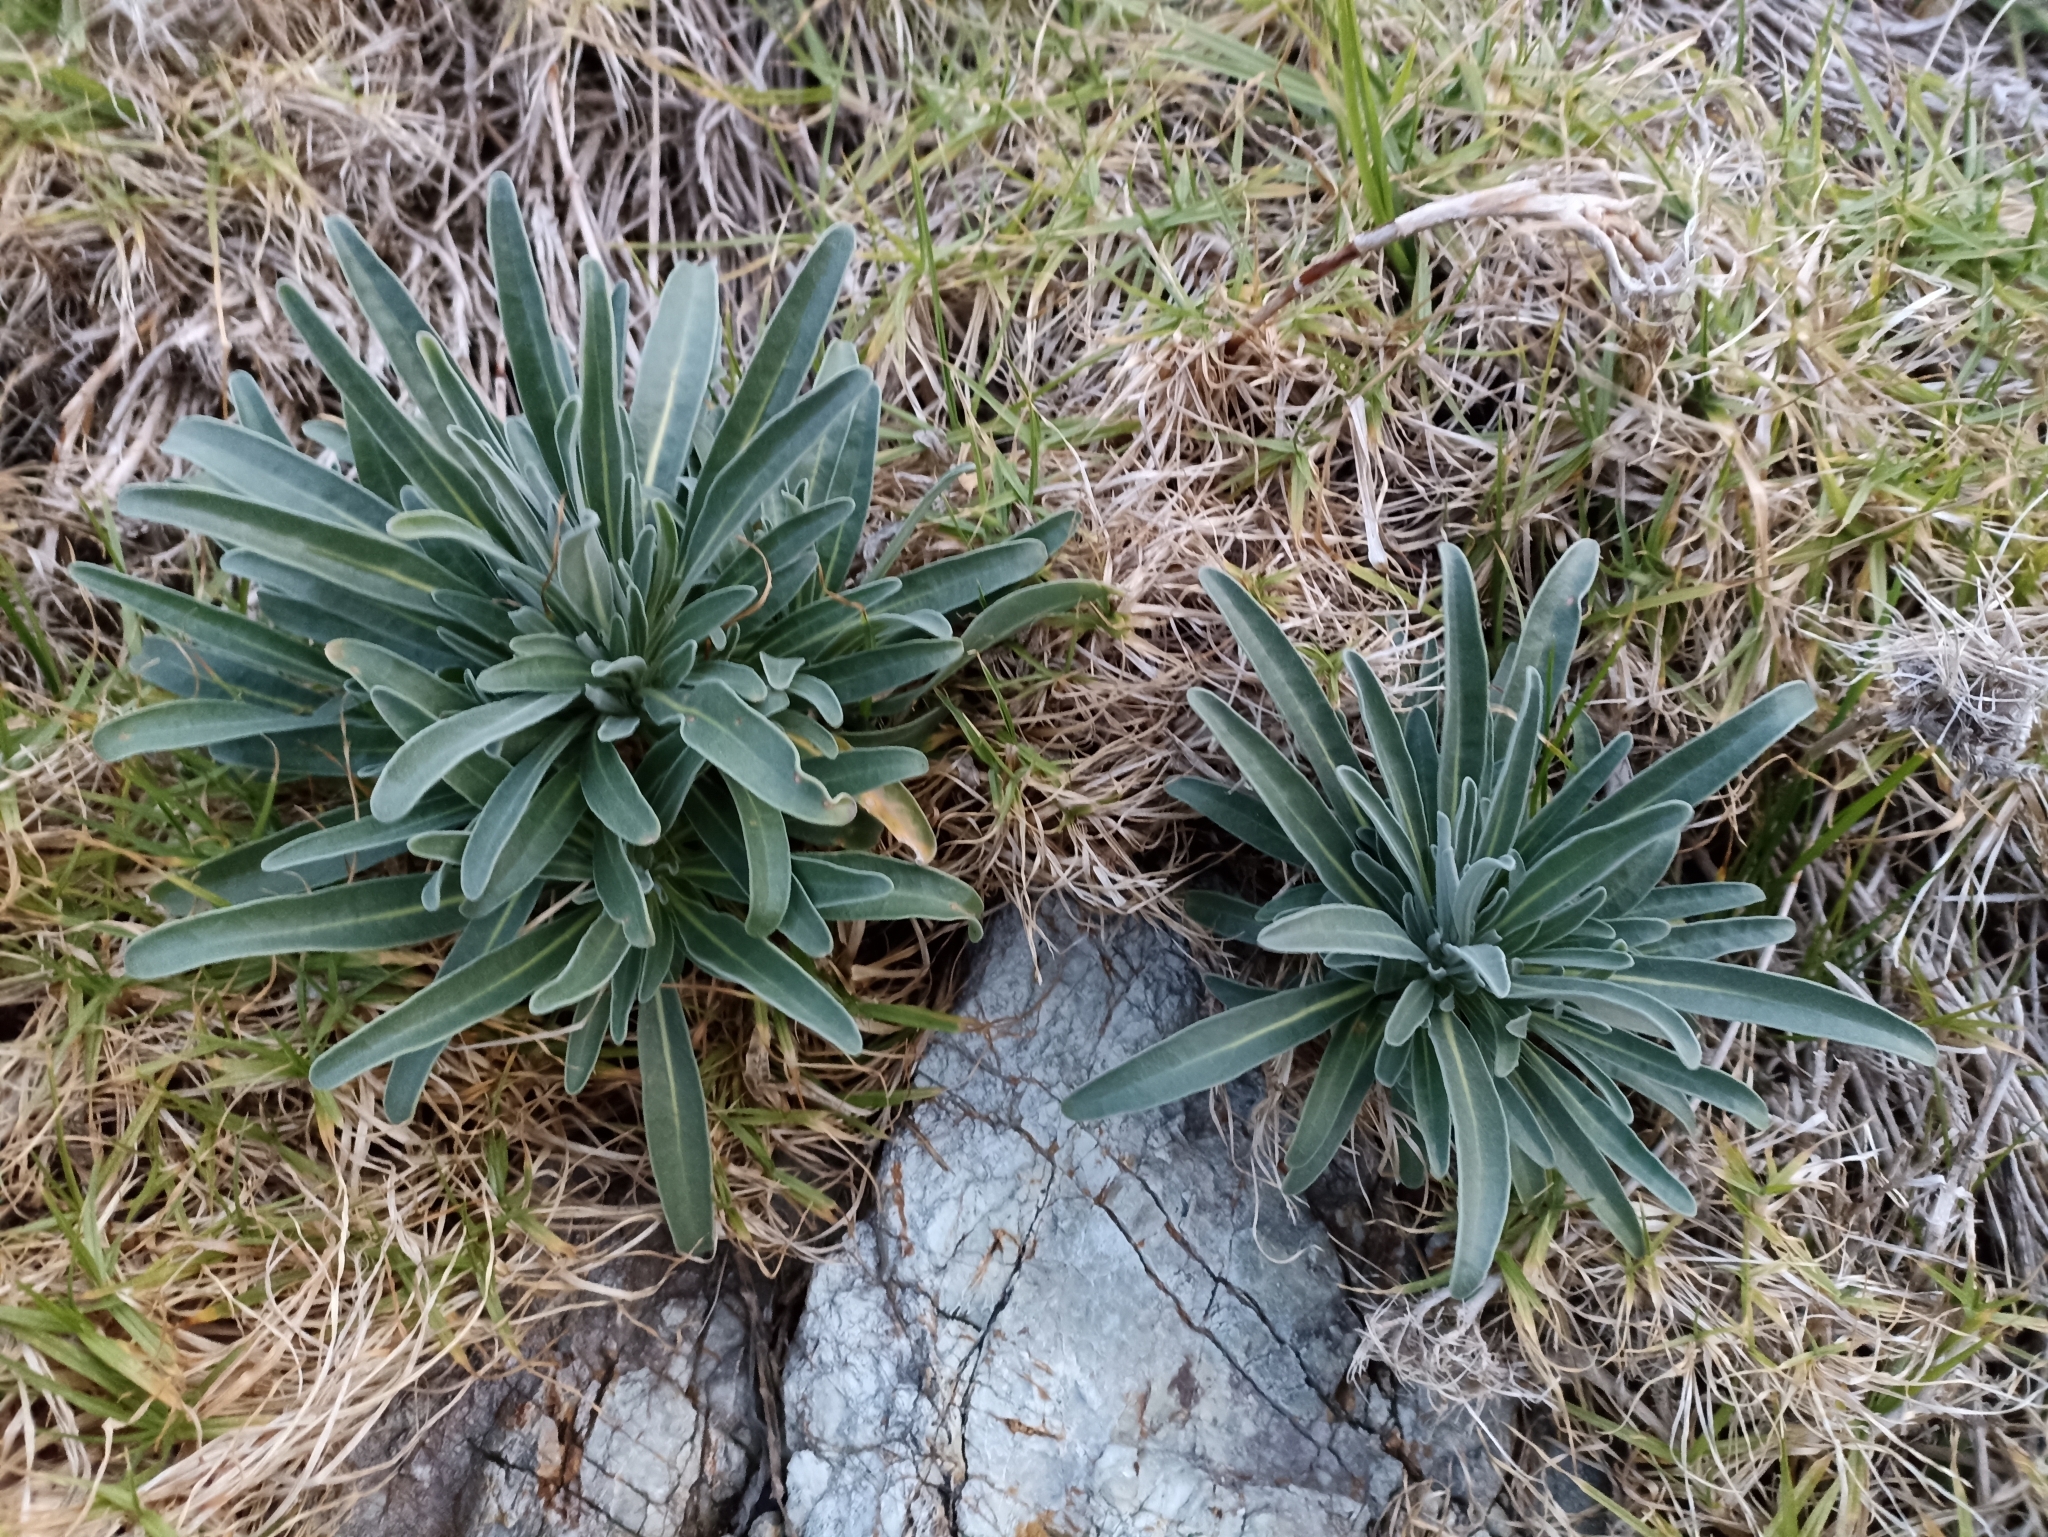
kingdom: Plantae
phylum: Tracheophyta
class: Magnoliopsida
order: Brassicales
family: Brassicaceae
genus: Matthiola
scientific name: Matthiola incana
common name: Hoary stock
